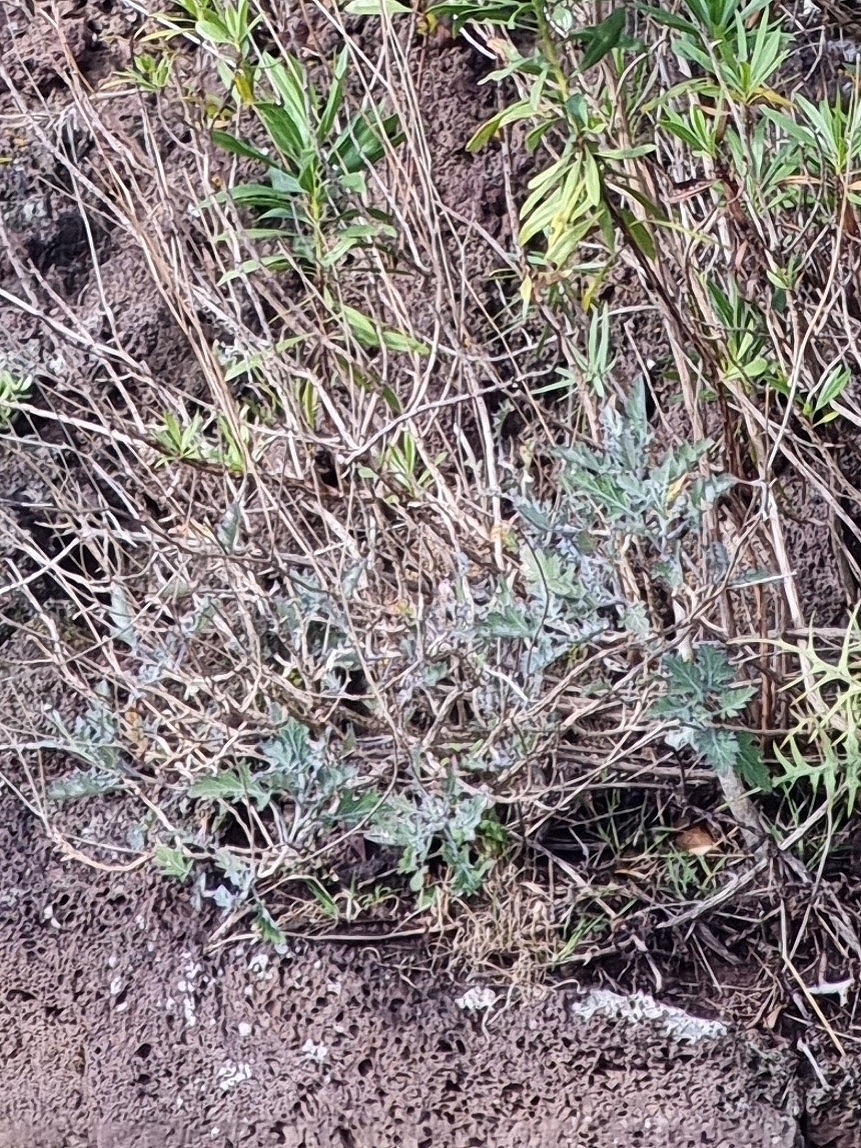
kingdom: Plantae
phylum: Tracheophyta
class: Magnoliopsida
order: Brassicales
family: Brassicaceae
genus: Crambe
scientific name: Crambe fruticosa
